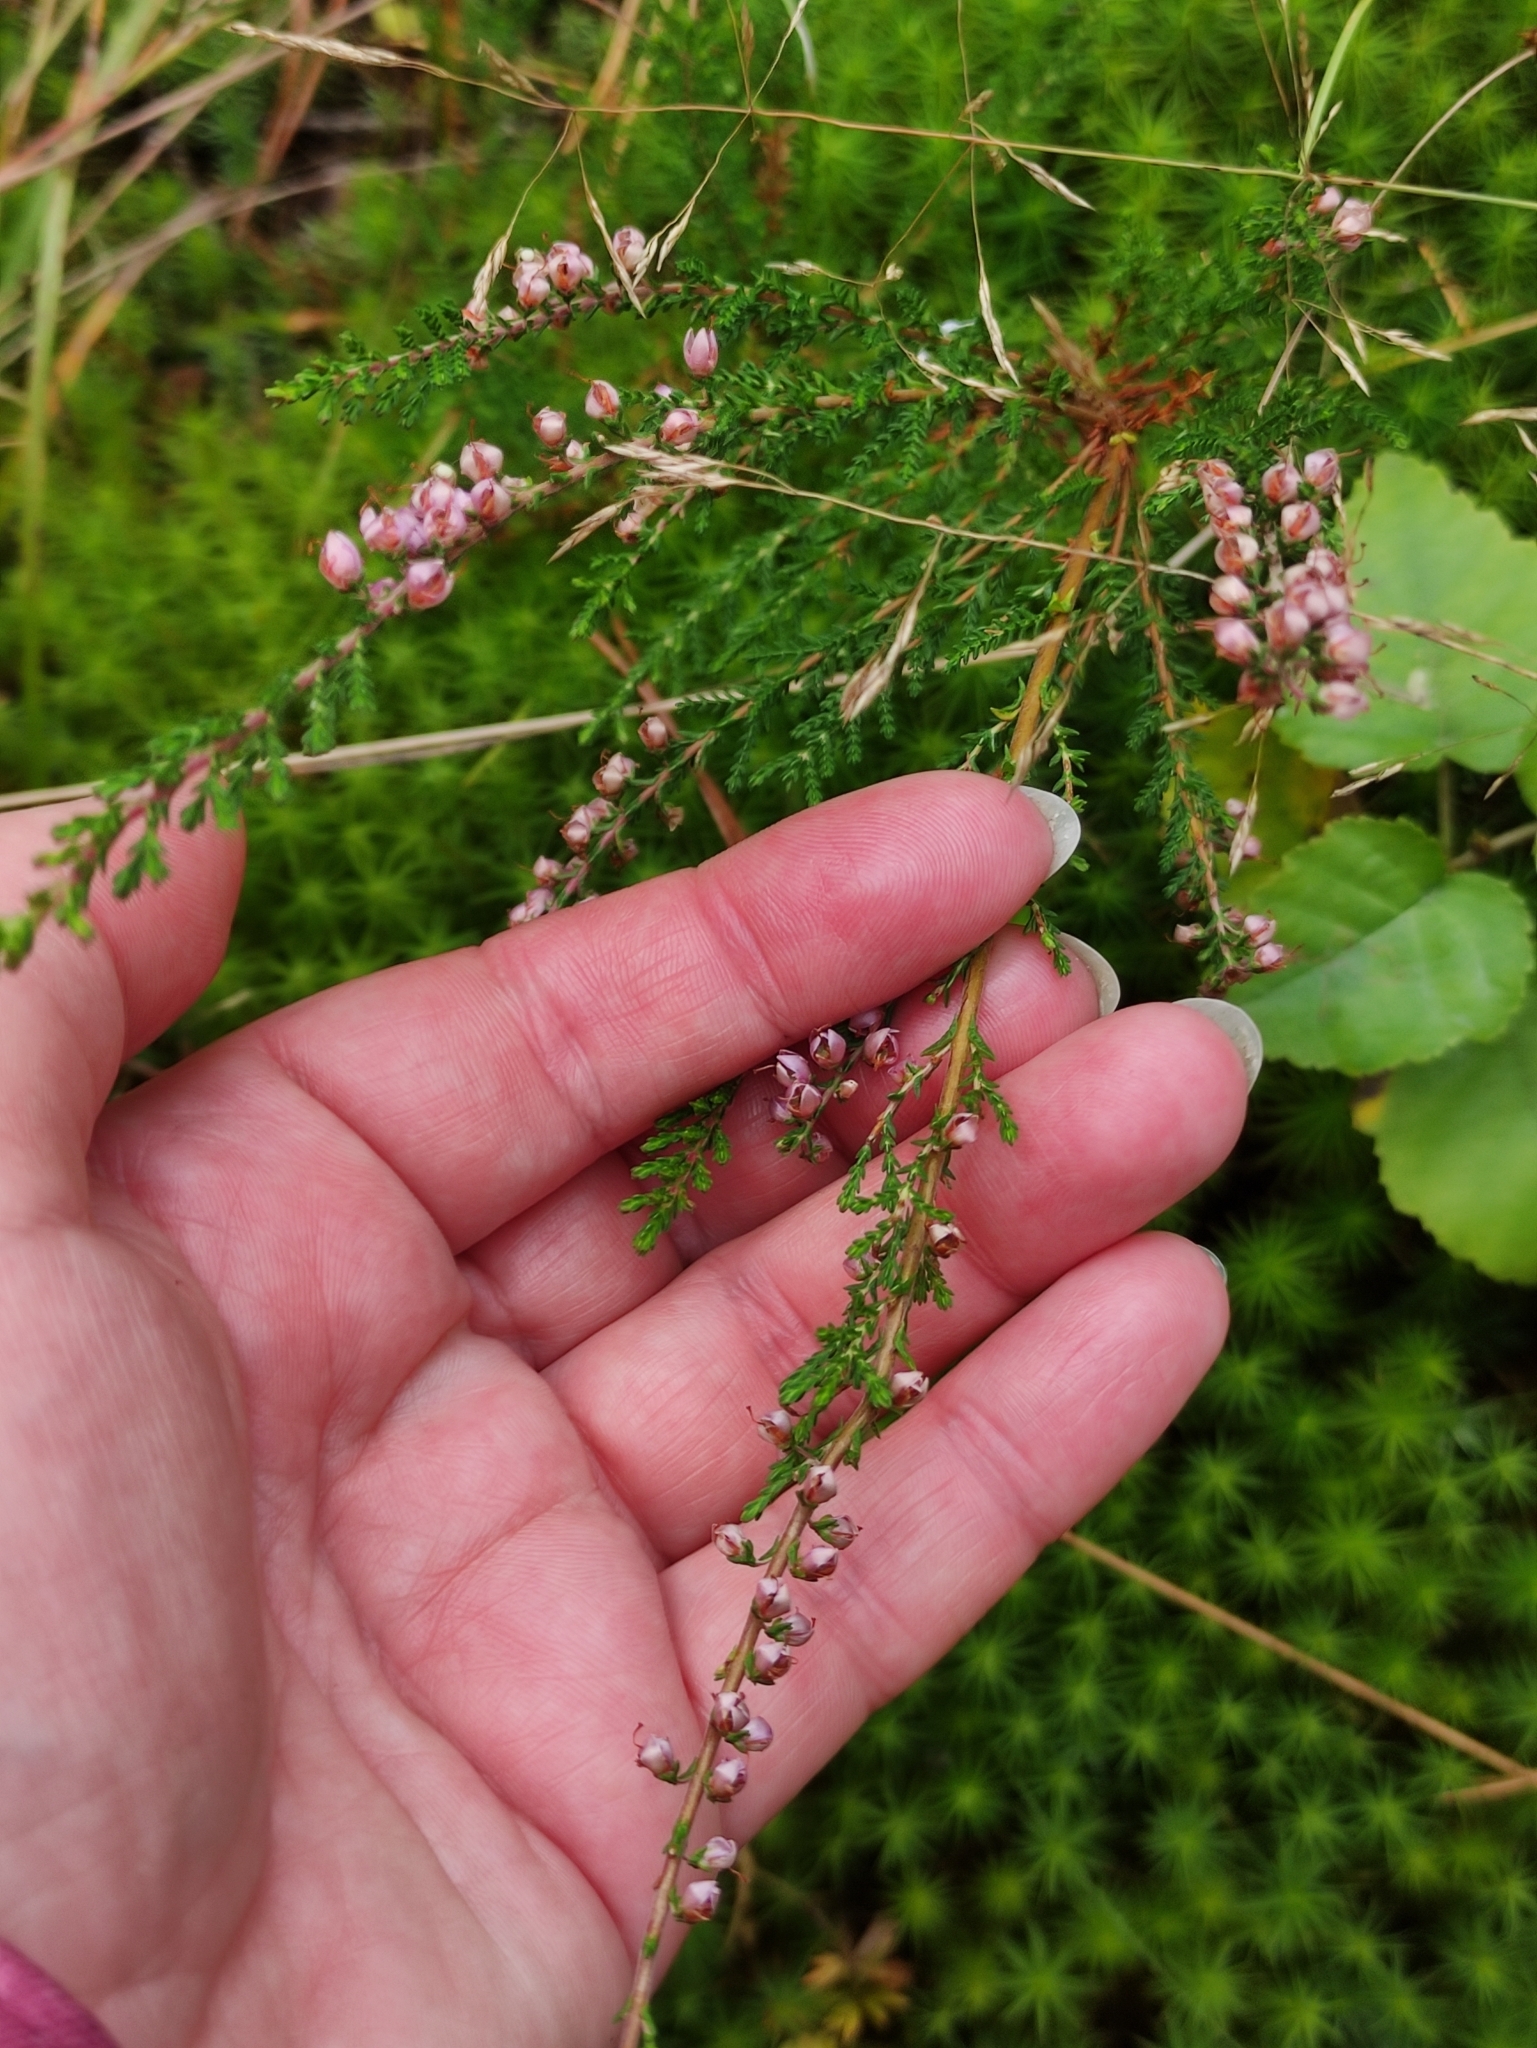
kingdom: Plantae
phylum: Tracheophyta
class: Magnoliopsida
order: Ericales
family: Ericaceae
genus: Calluna
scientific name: Calluna vulgaris
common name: Heather
